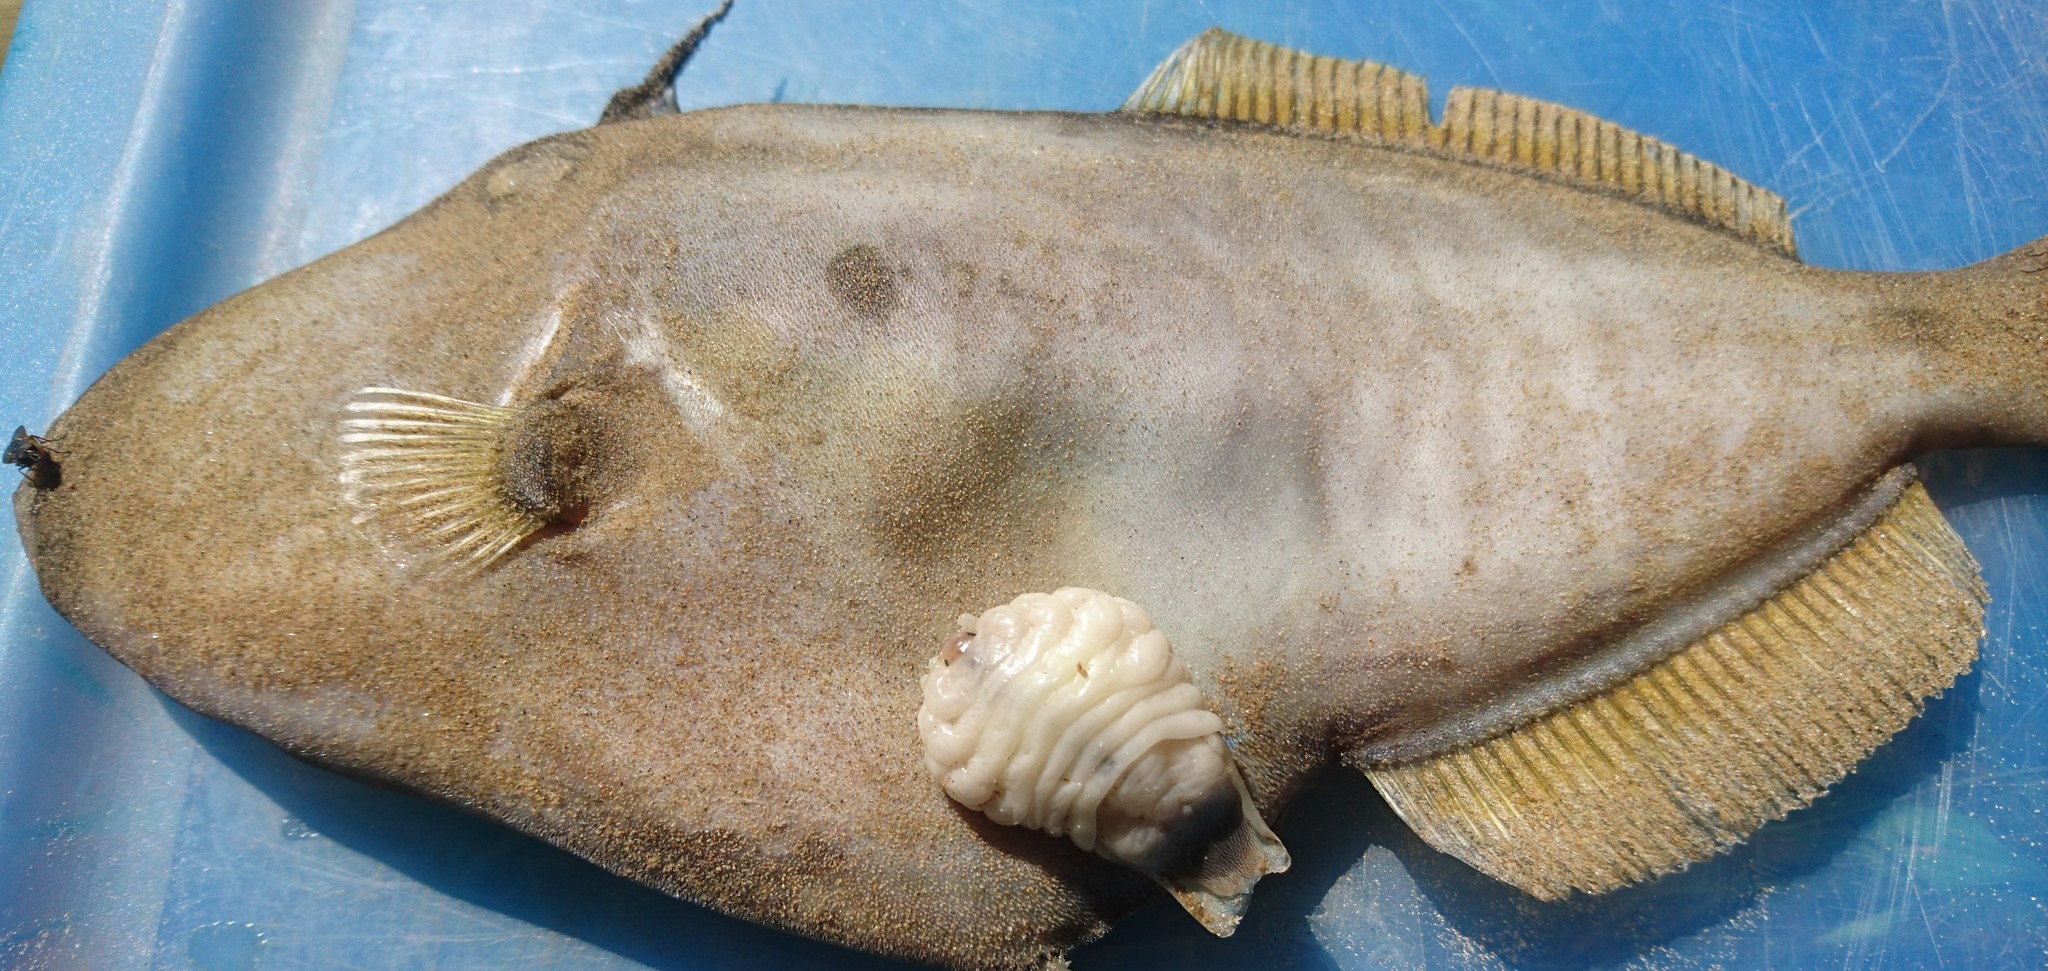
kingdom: Animalia
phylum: Arthropoda
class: Malacostraca
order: Isopoda
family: Cymothoidae
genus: Ourozeuktes
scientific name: Ourozeuktes bopyroides
